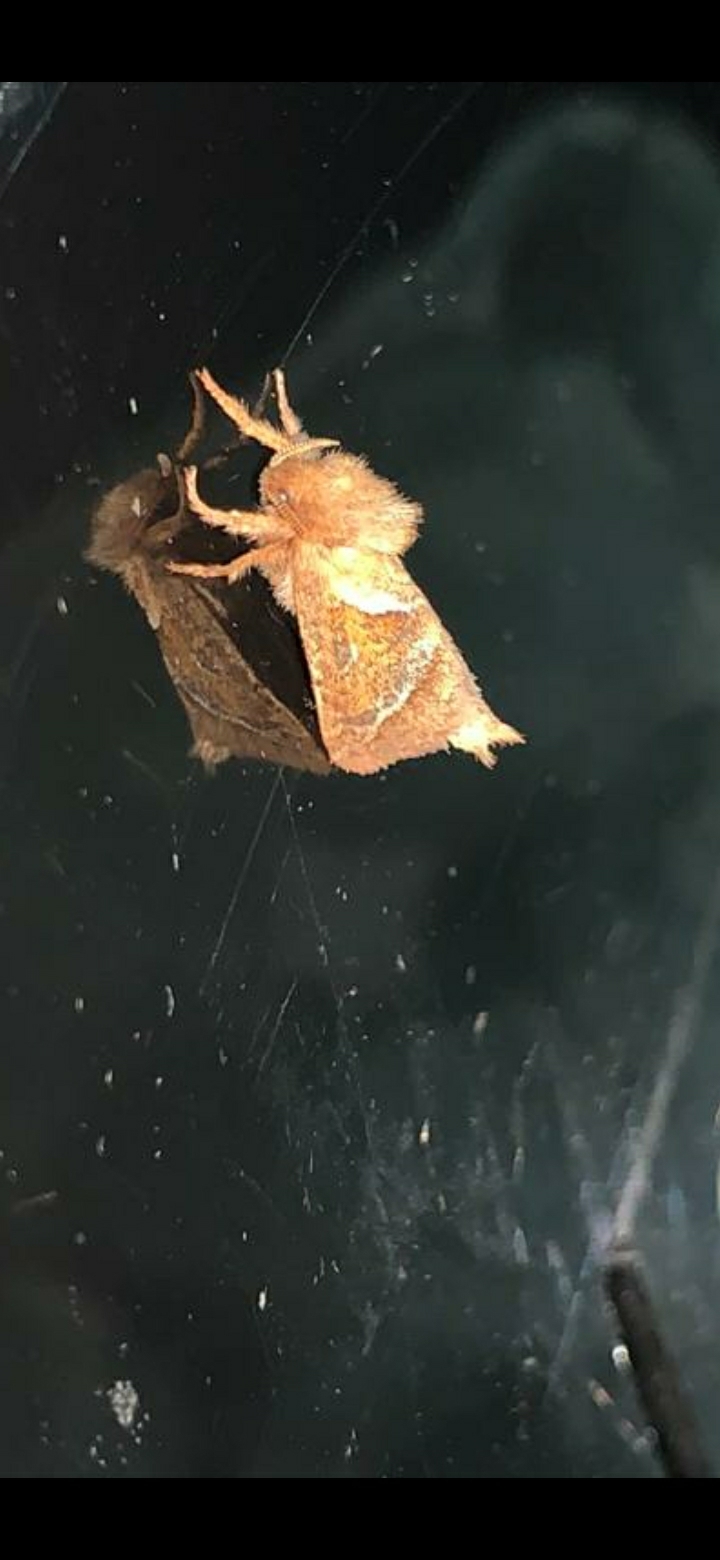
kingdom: Animalia
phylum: Arthropoda
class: Insecta
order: Lepidoptera
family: Hepialidae
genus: Triodia
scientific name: Triodia sylvina
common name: Orange swift
